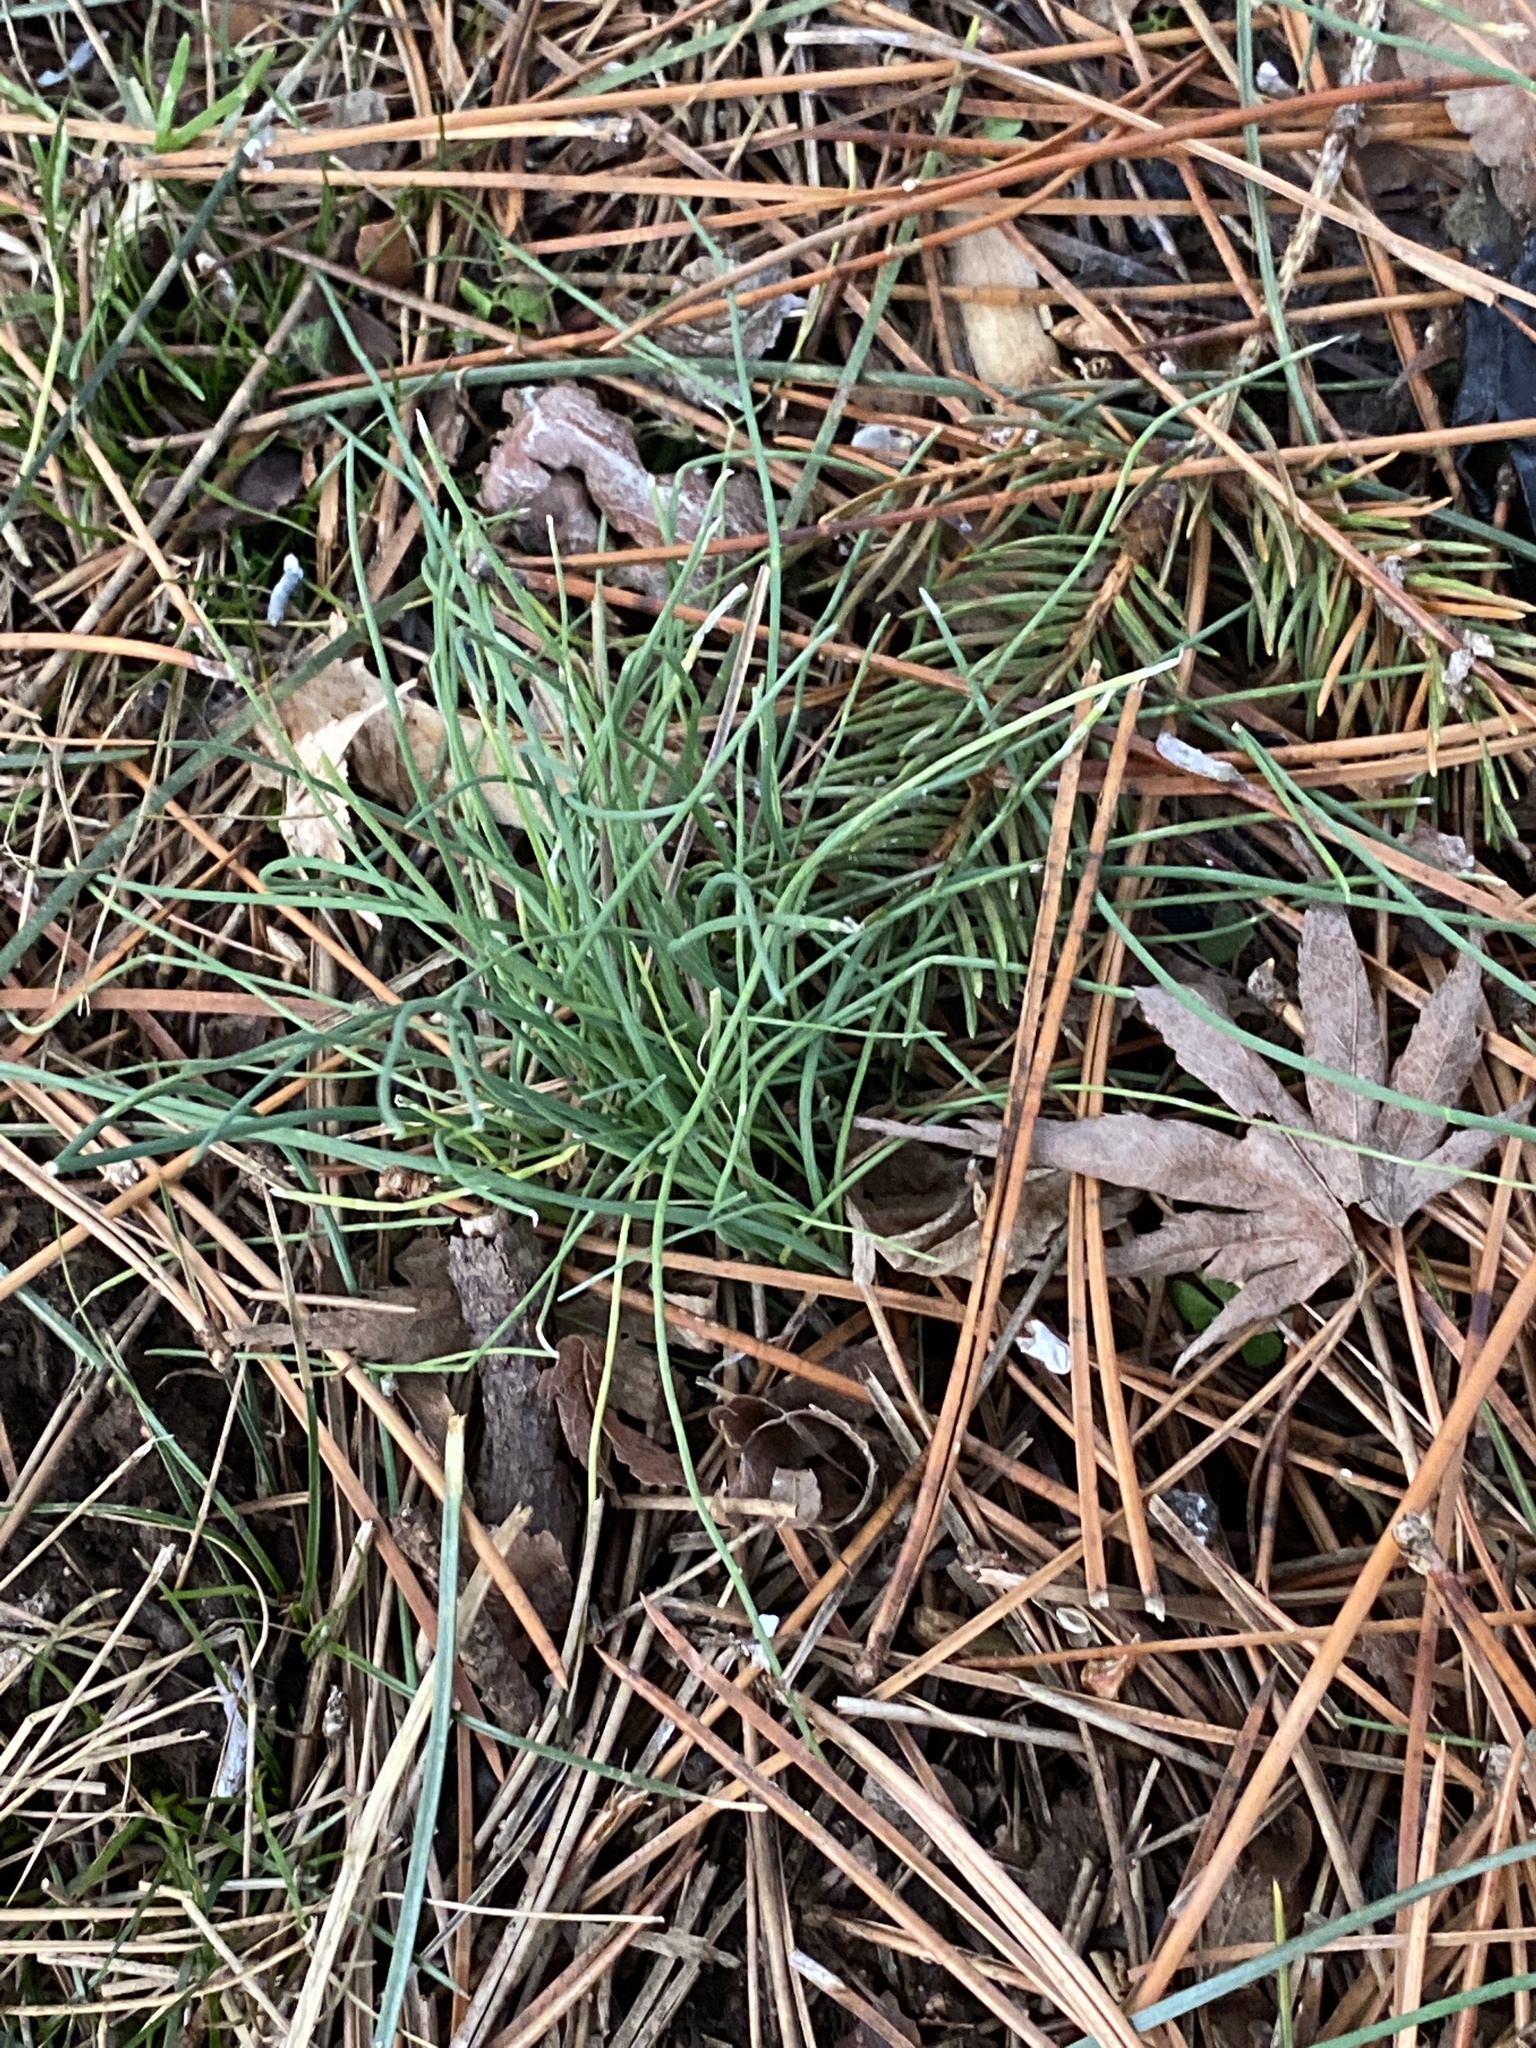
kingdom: Plantae
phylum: Tracheophyta
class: Liliopsida
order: Asparagales
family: Amaryllidaceae
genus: Allium
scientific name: Allium vineale
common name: Crow garlic
